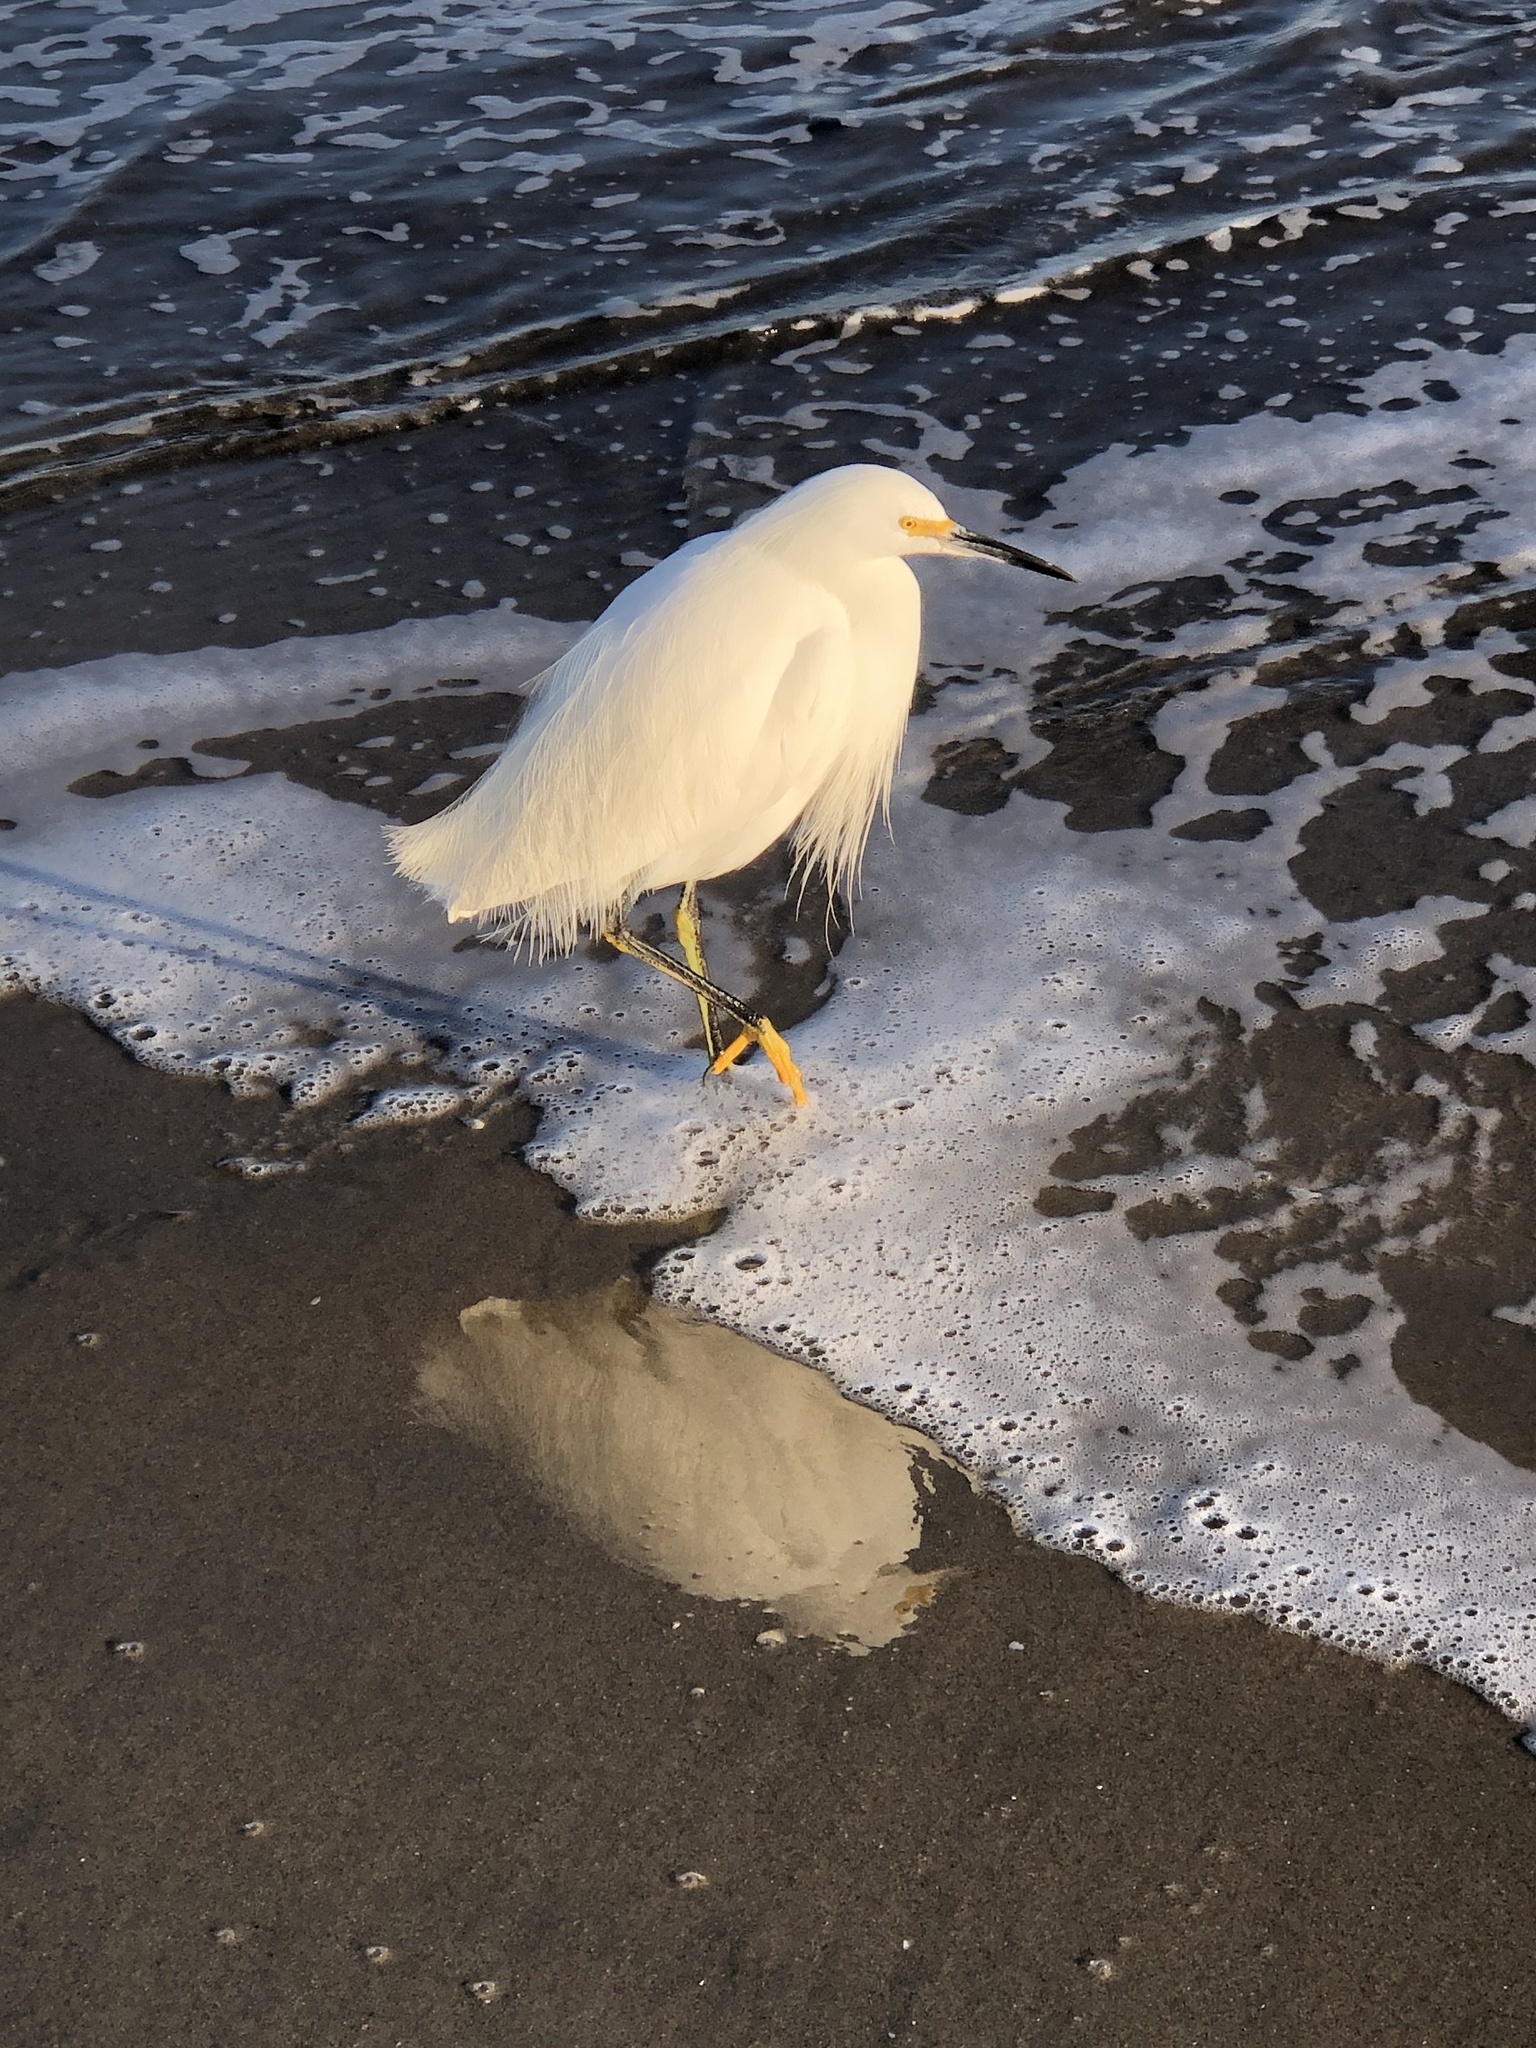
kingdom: Animalia
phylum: Chordata
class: Aves
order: Pelecaniformes
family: Ardeidae
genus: Egretta
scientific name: Egretta thula
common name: Snowy egret
